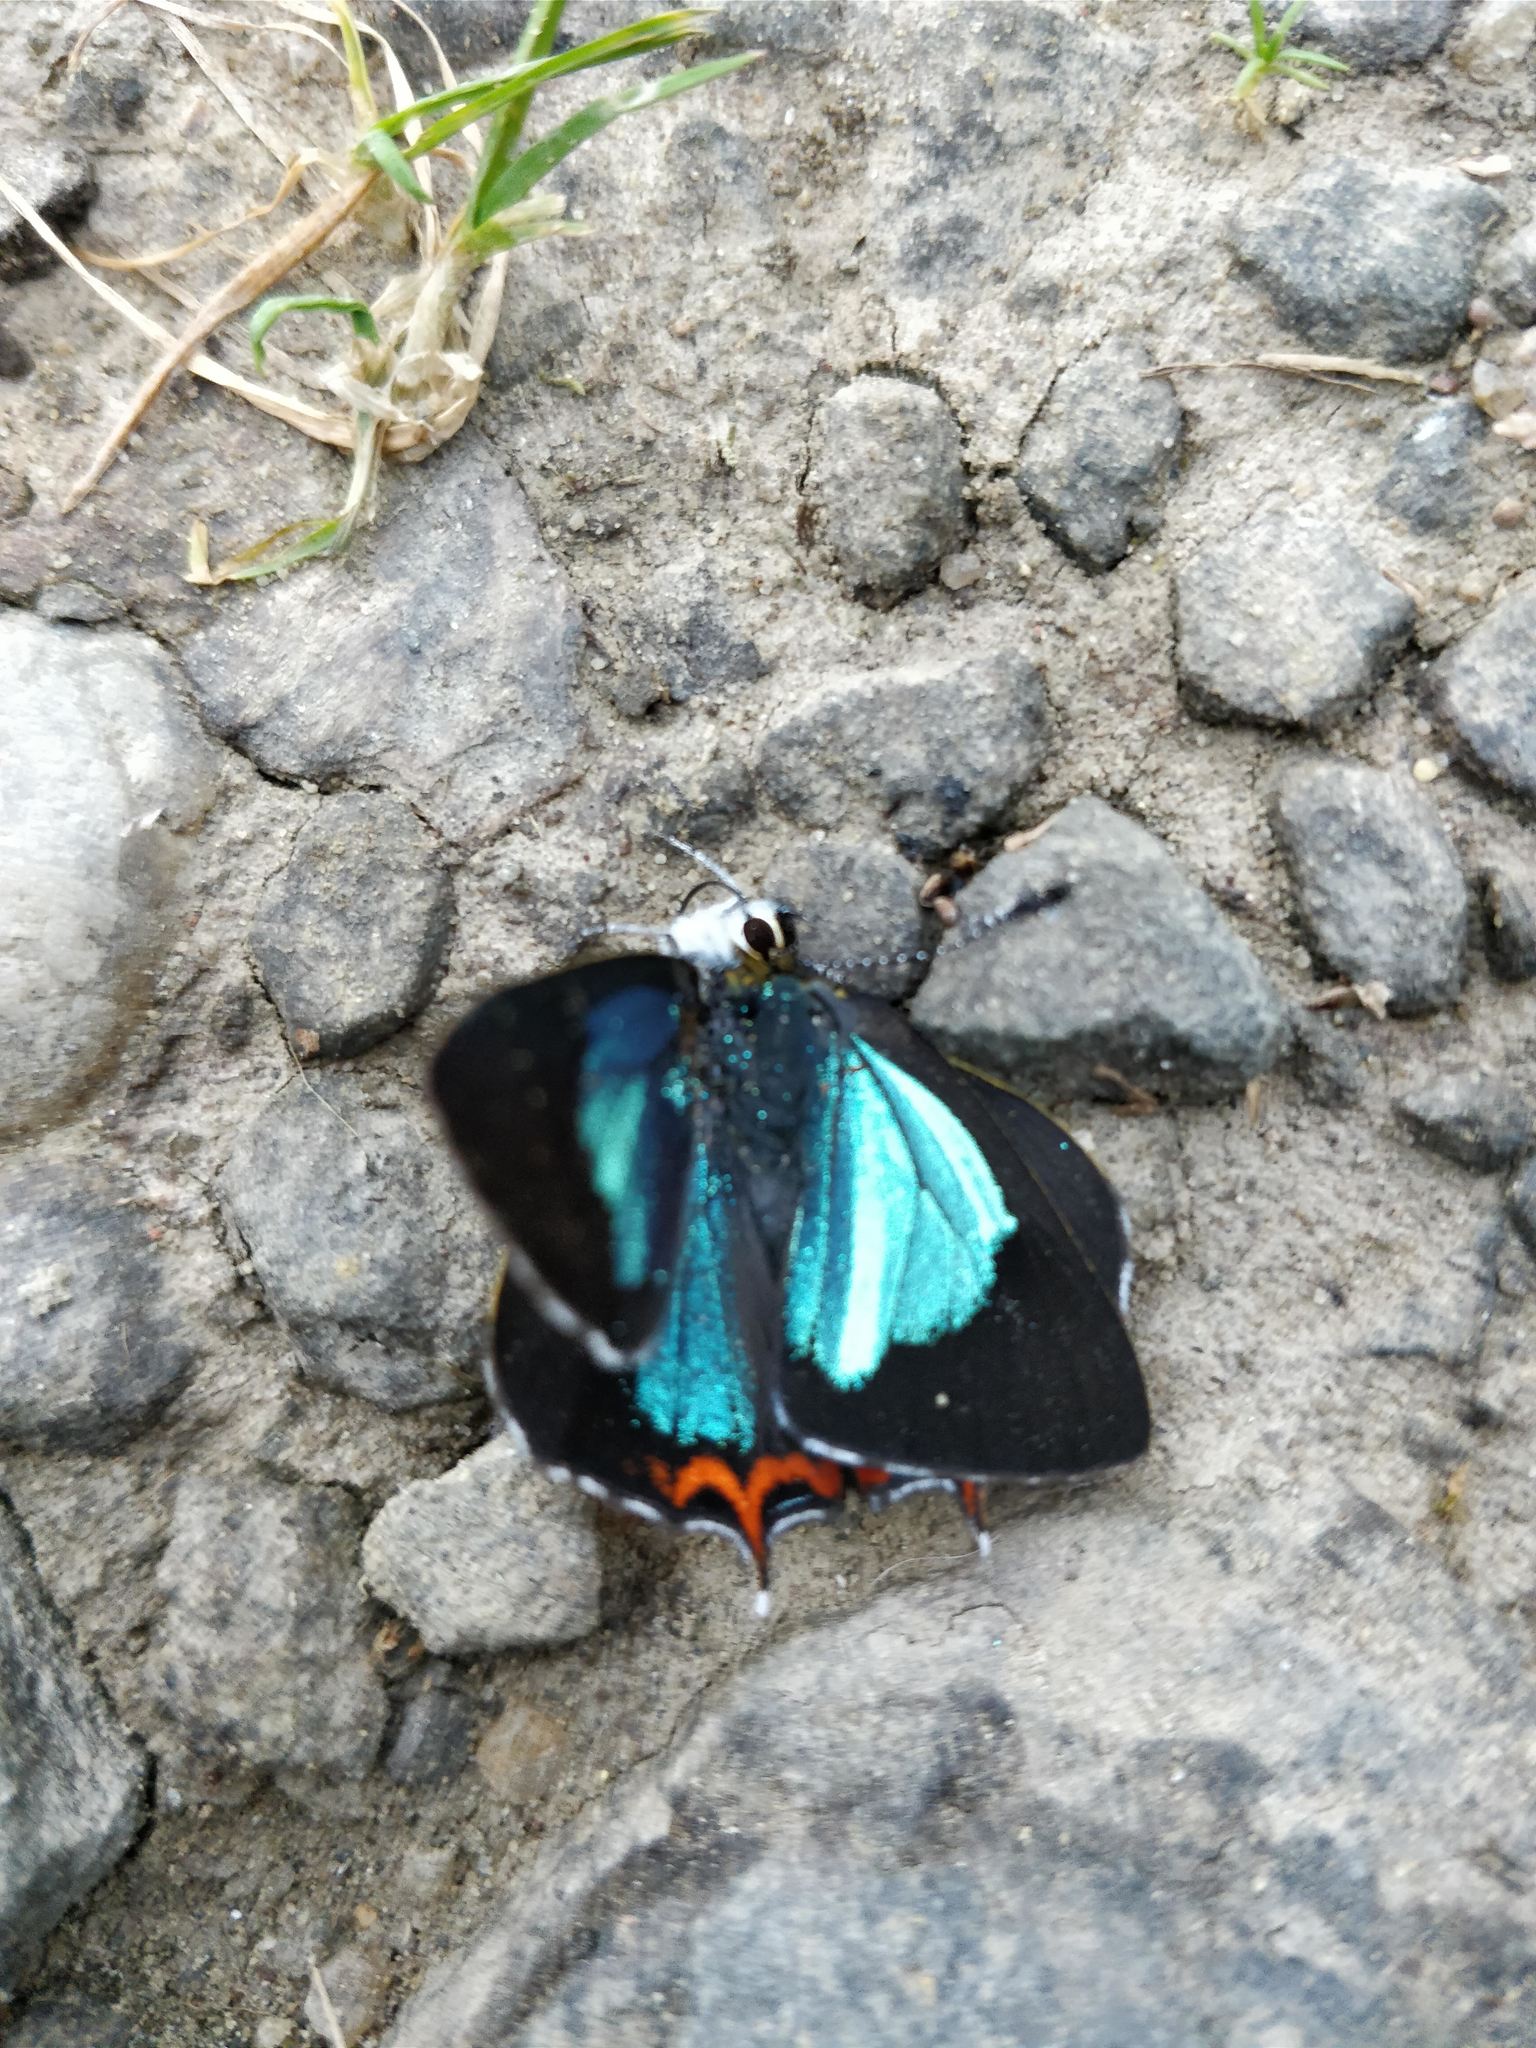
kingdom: Animalia
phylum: Arthropoda
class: Insecta
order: Lepidoptera
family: Lycaenidae
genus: Heliophorus
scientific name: Heliophorus
